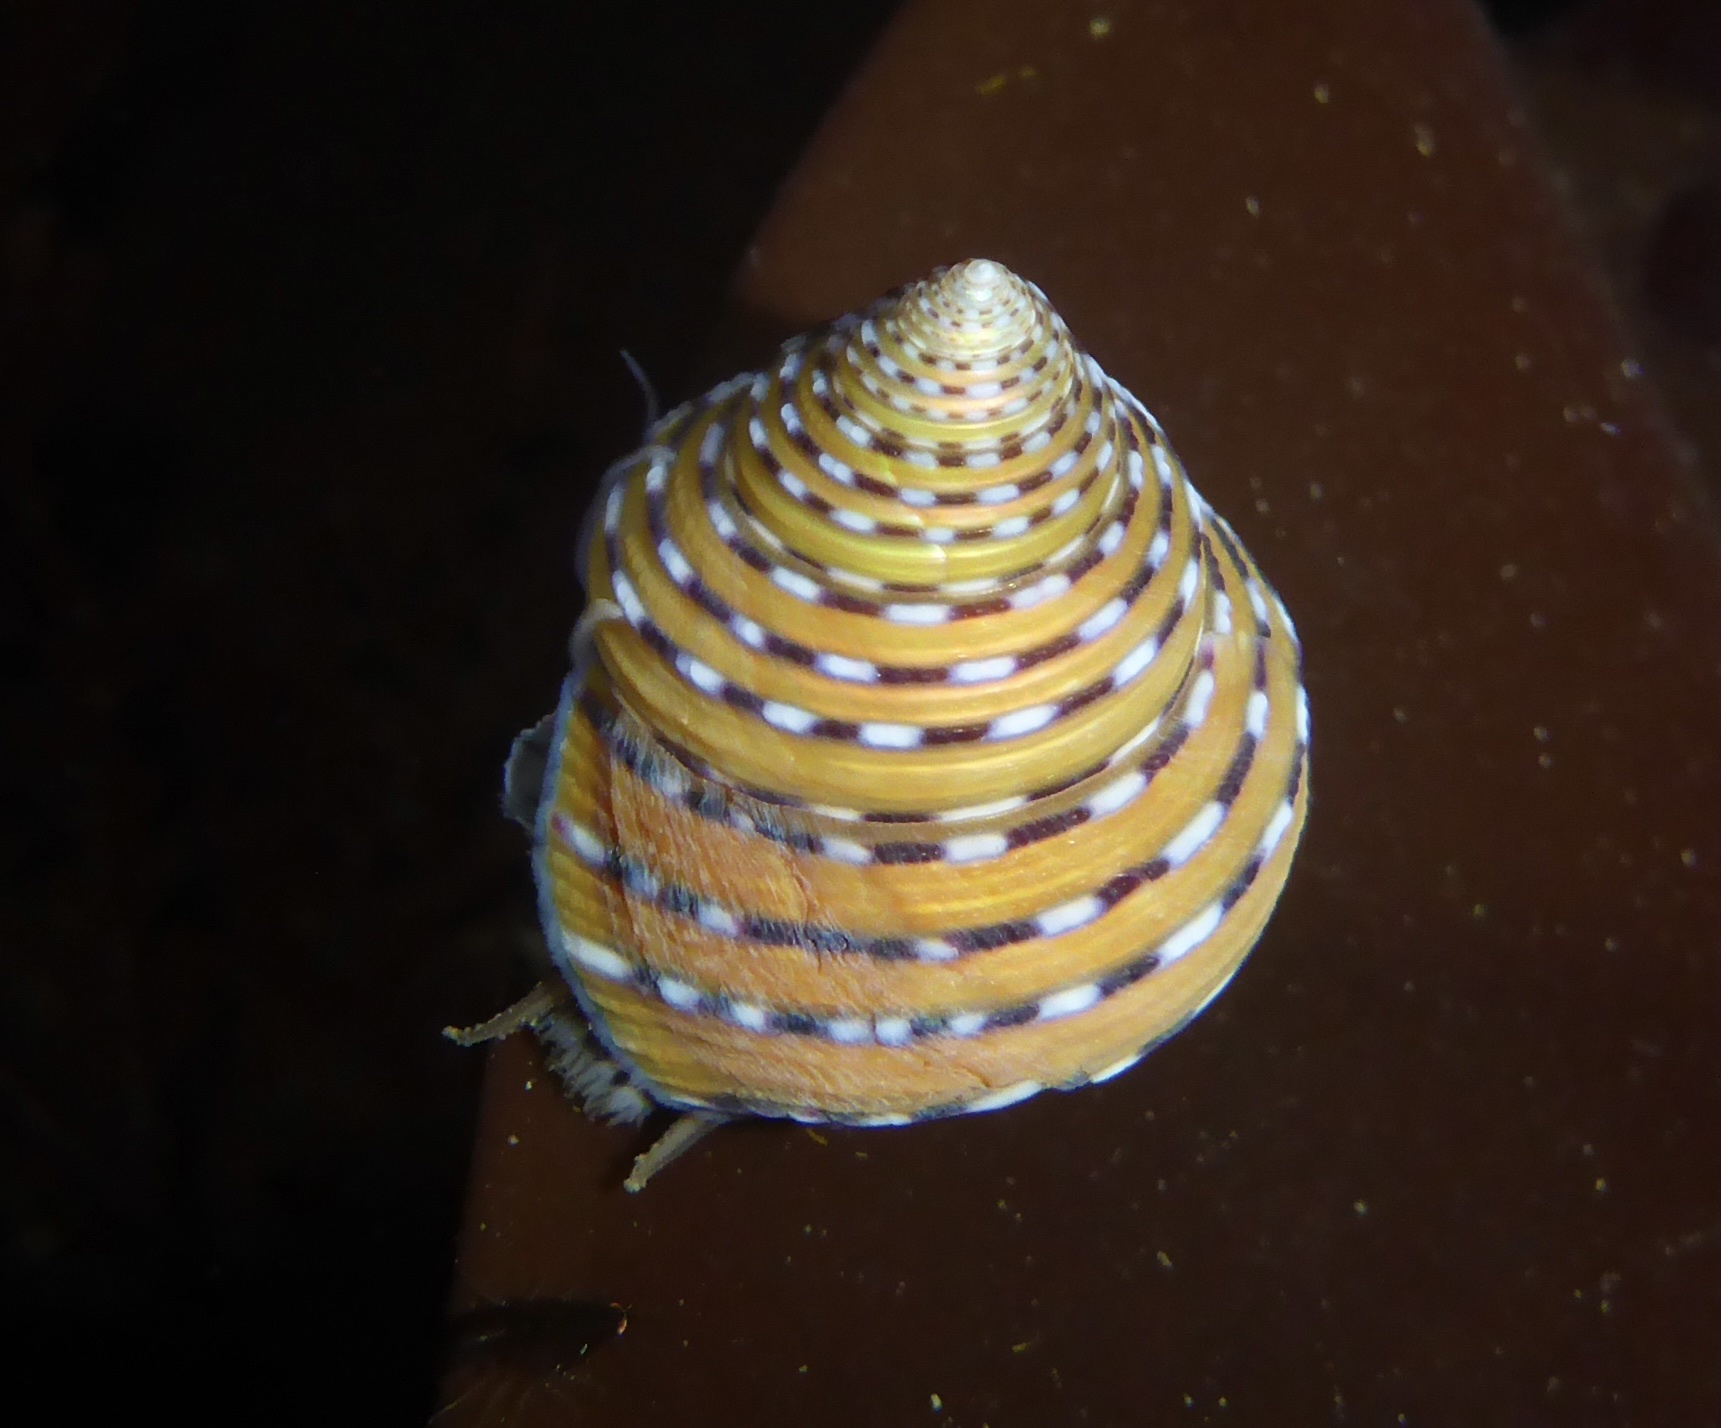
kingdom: Animalia
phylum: Mollusca
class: Gastropoda
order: Trochida
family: Calliostomatidae
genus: Calliostoma
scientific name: Calliostoma tricolor
